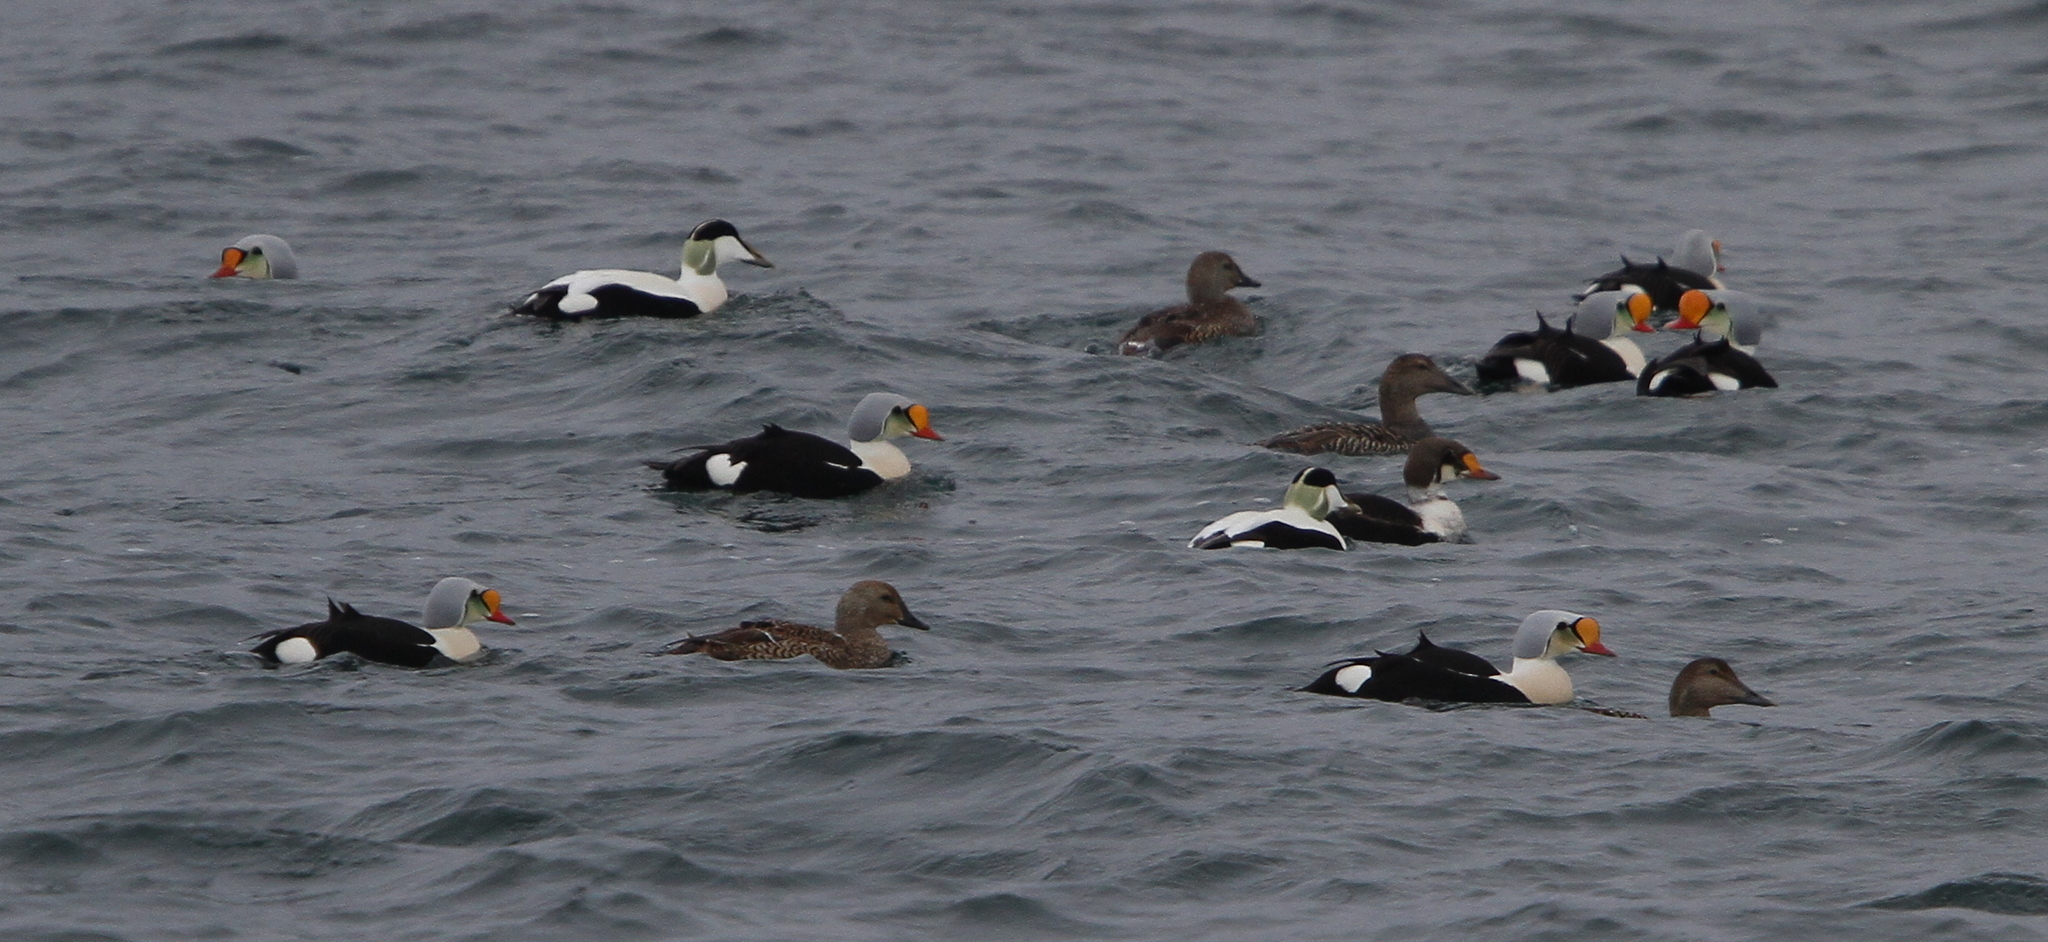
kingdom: Animalia
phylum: Chordata
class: Aves
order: Anseriformes
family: Anatidae
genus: Somateria
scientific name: Somateria spectabilis
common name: King eider
